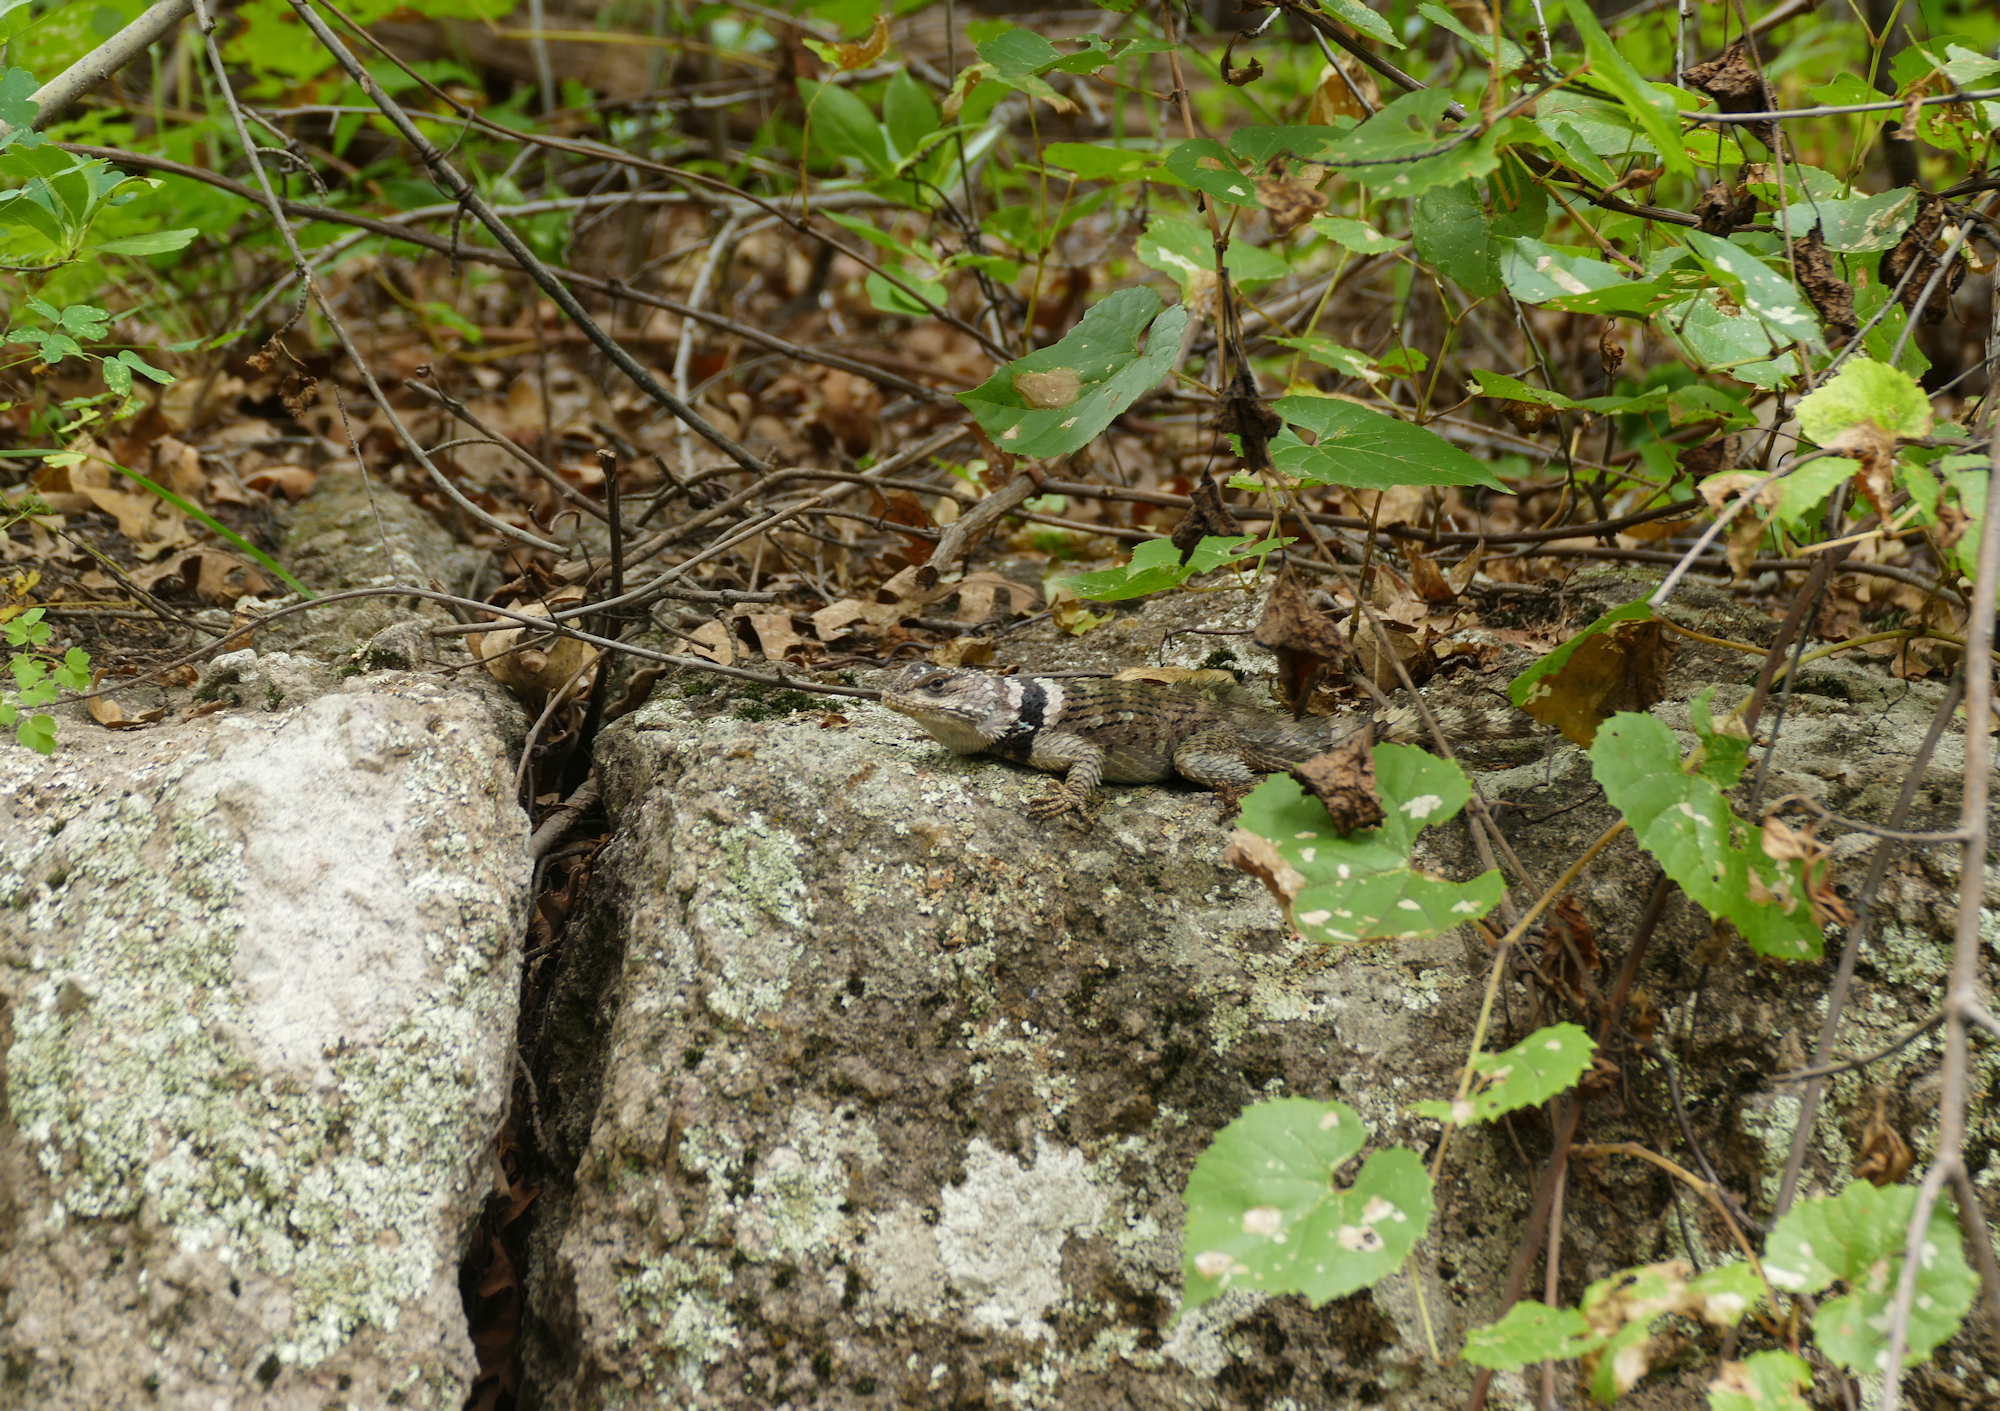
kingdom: Animalia
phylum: Chordata
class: Squamata
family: Phrynosomatidae
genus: Sceloporus
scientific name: Sceloporus poinsettii
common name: Crevice spiny lizard
